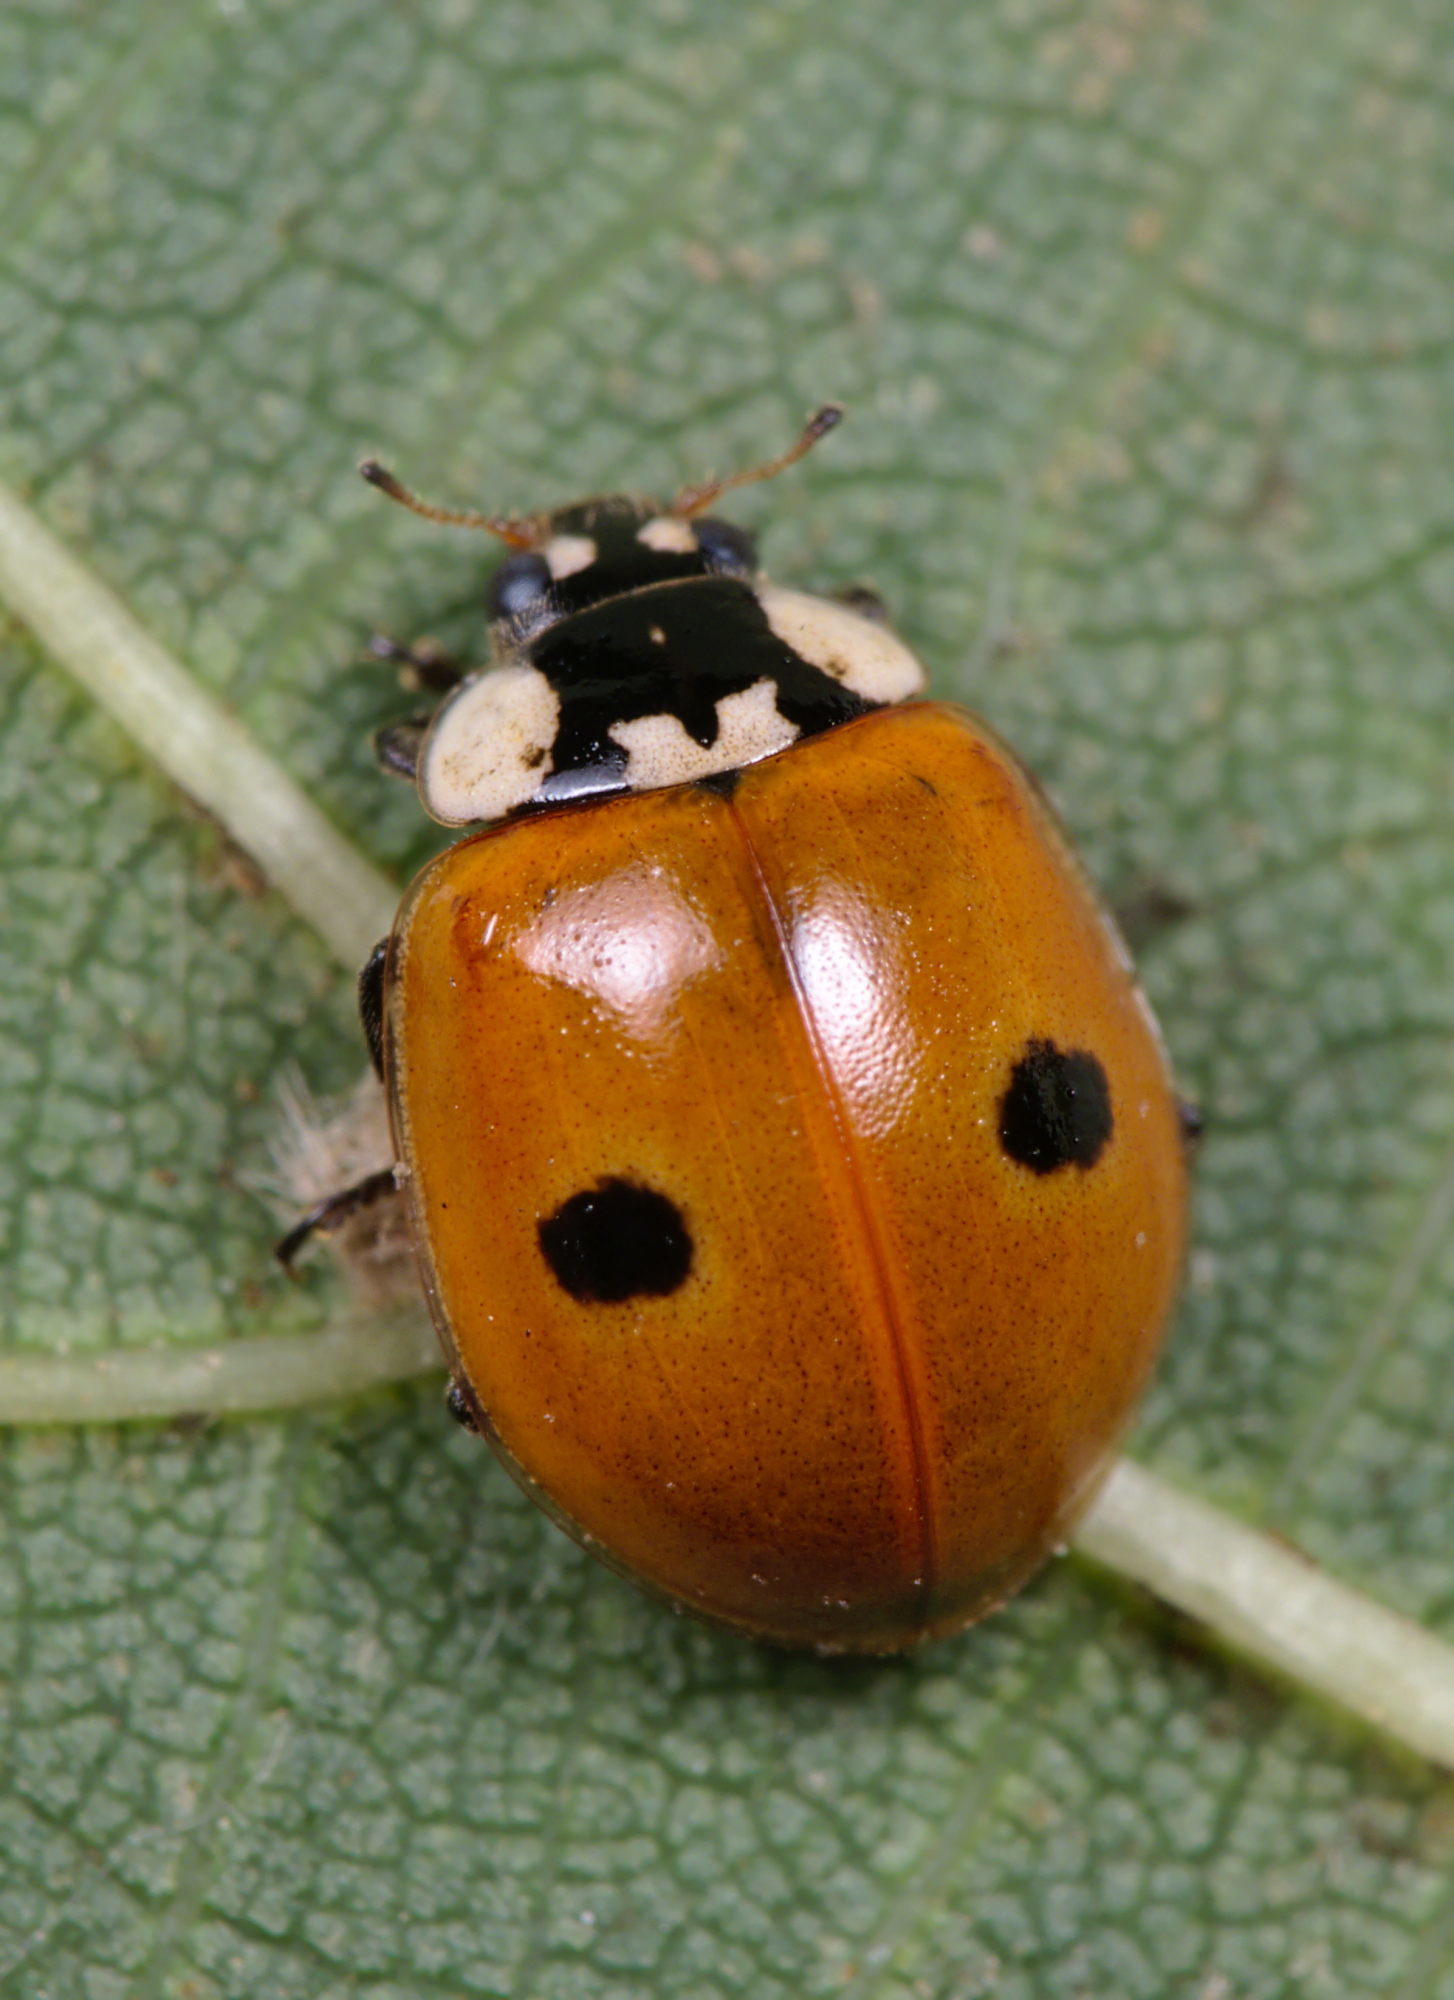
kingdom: Animalia
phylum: Arthropoda
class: Insecta
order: Coleoptera
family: Coccinellidae
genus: Adalia
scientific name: Adalia bipunctata
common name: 2-spot ladybird
